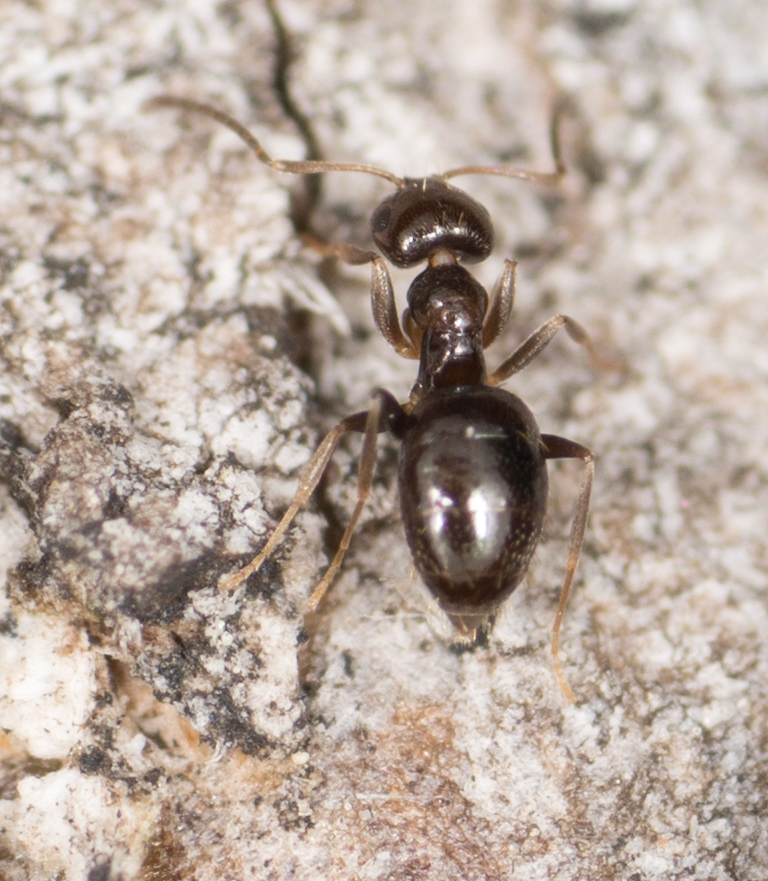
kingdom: Animalia
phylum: Arthropoda
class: Insecta
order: Hymenoptera
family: Formicidae
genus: Brachymyrmex
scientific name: Brachymyrmex patagonicus
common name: Dark rover ant
